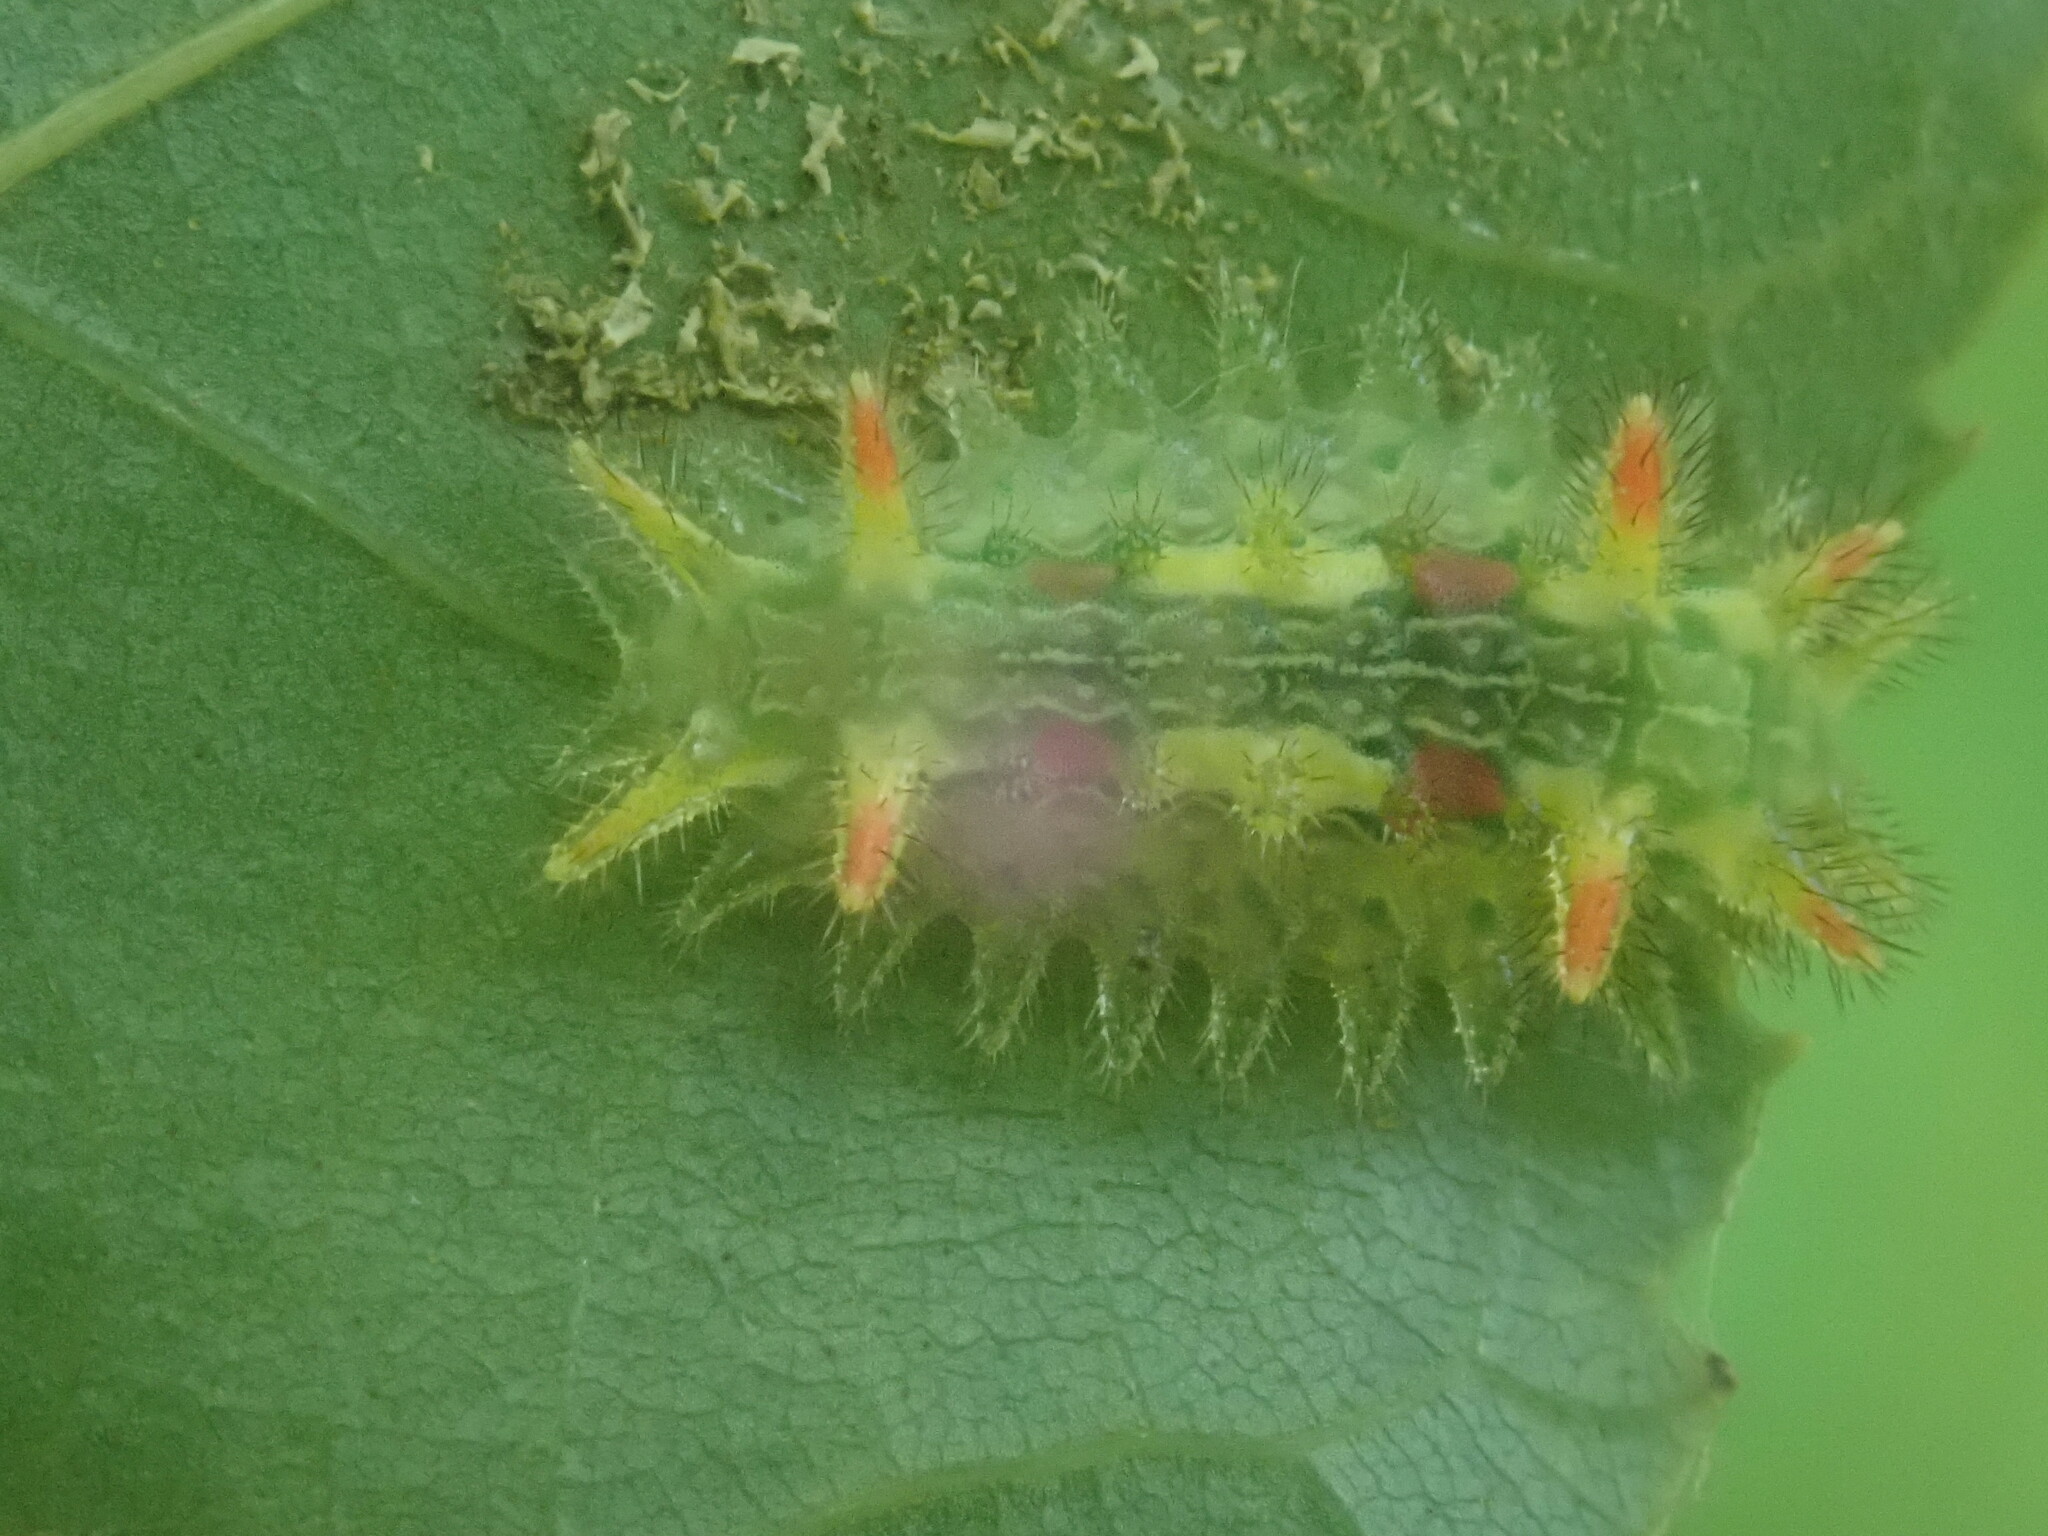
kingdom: Animalia
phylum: Arthropoda
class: Insecta
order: Lepidoptera
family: Limacodidae
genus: Euclea
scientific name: Euclea delphinii
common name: Spiny oak-slug moth
